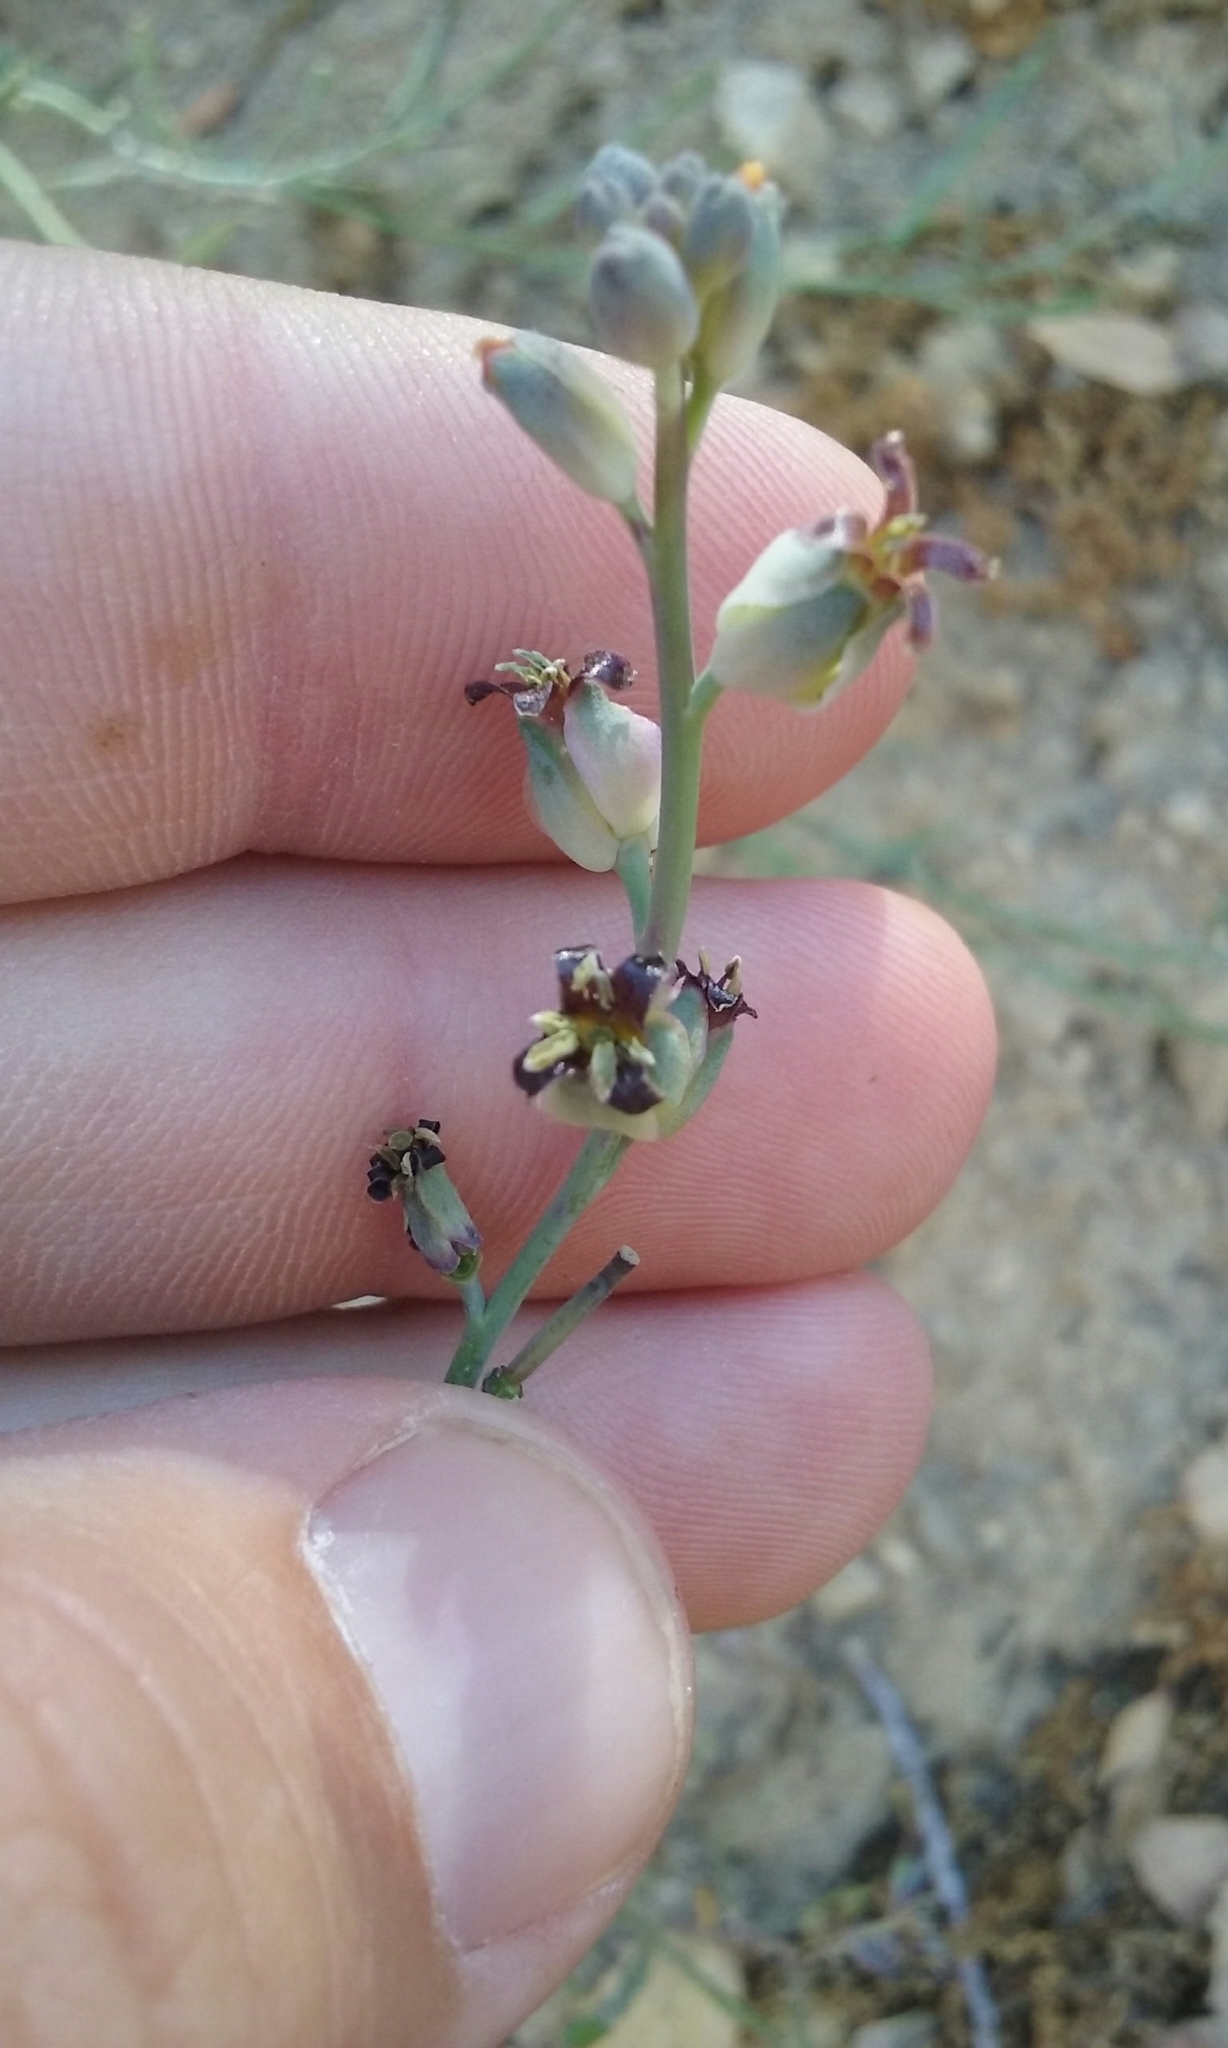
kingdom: Plantae
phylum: Tracheophyta
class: Magnoliopsida
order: Brassicales
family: Brassicaceae
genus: Streptanthus
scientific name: Streptanthus medeirosii
